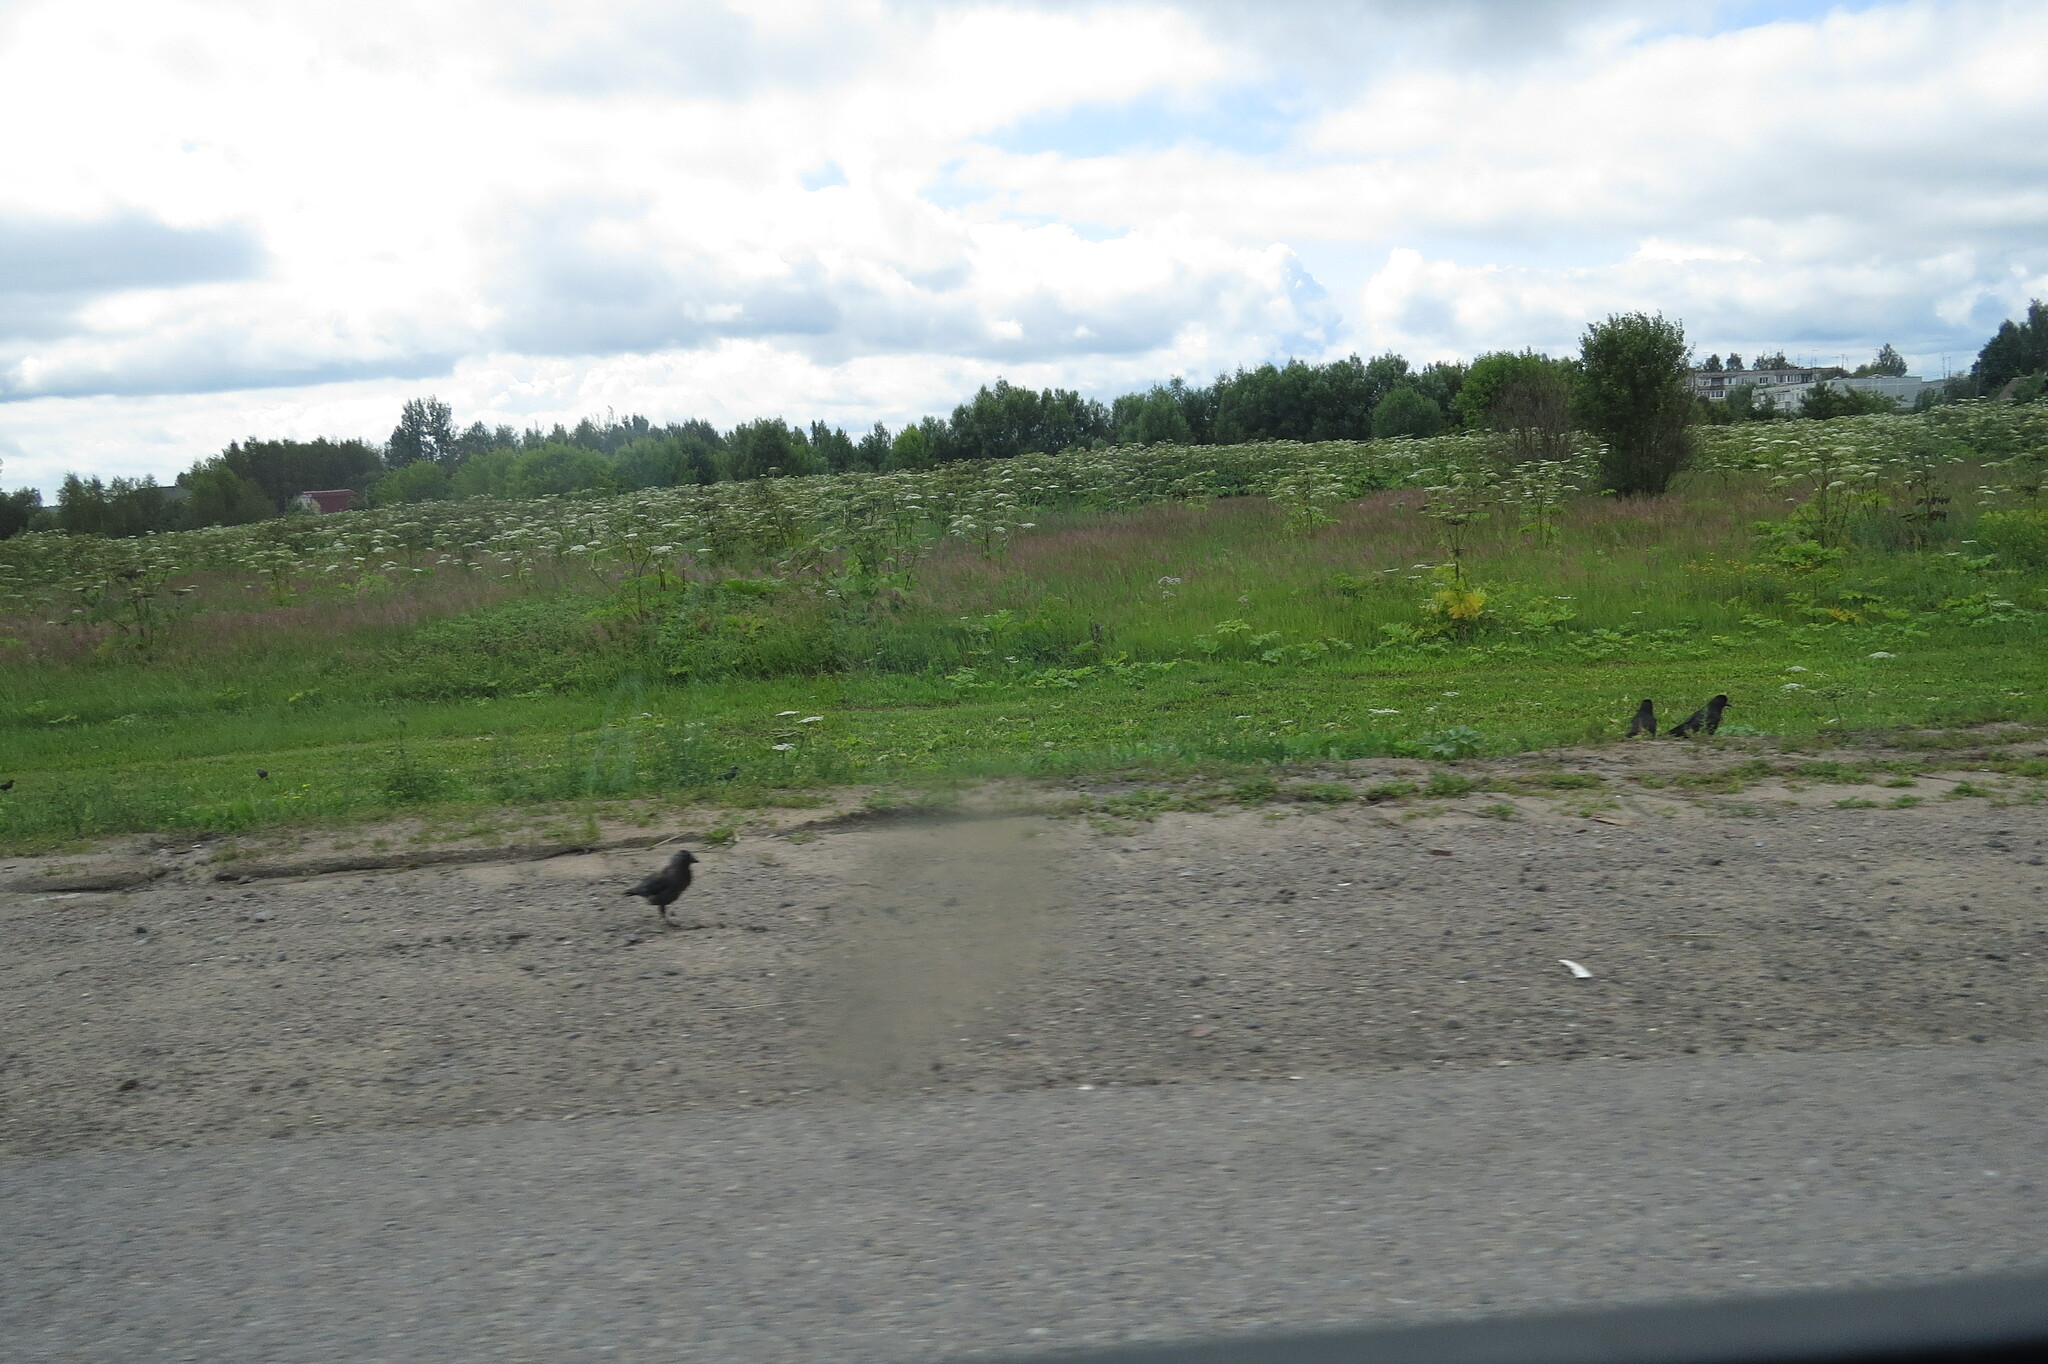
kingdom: Animalia
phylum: Chordata
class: Aves
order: Passeriformes
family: Corvidae
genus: Corvus
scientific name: Corvus frugilegus
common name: Rook
